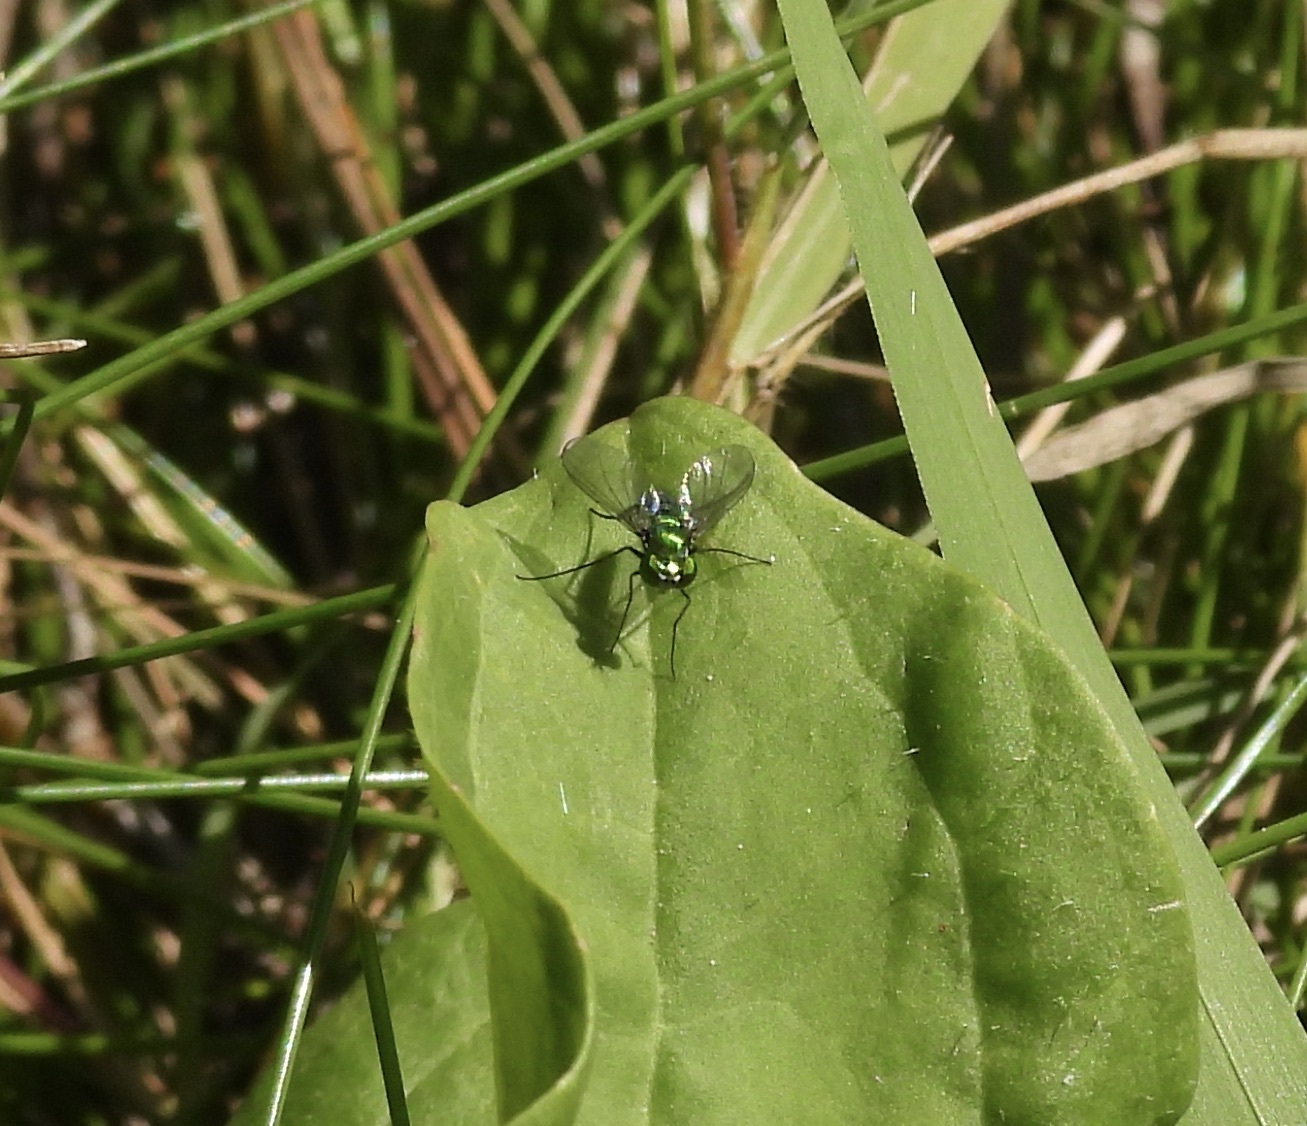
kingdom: Animalia
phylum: Arthropoda
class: Insecta
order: Diptera
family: Dolichopodidae
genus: Condylostylus
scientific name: Condylostylus longicornis
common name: Long-legged fly
